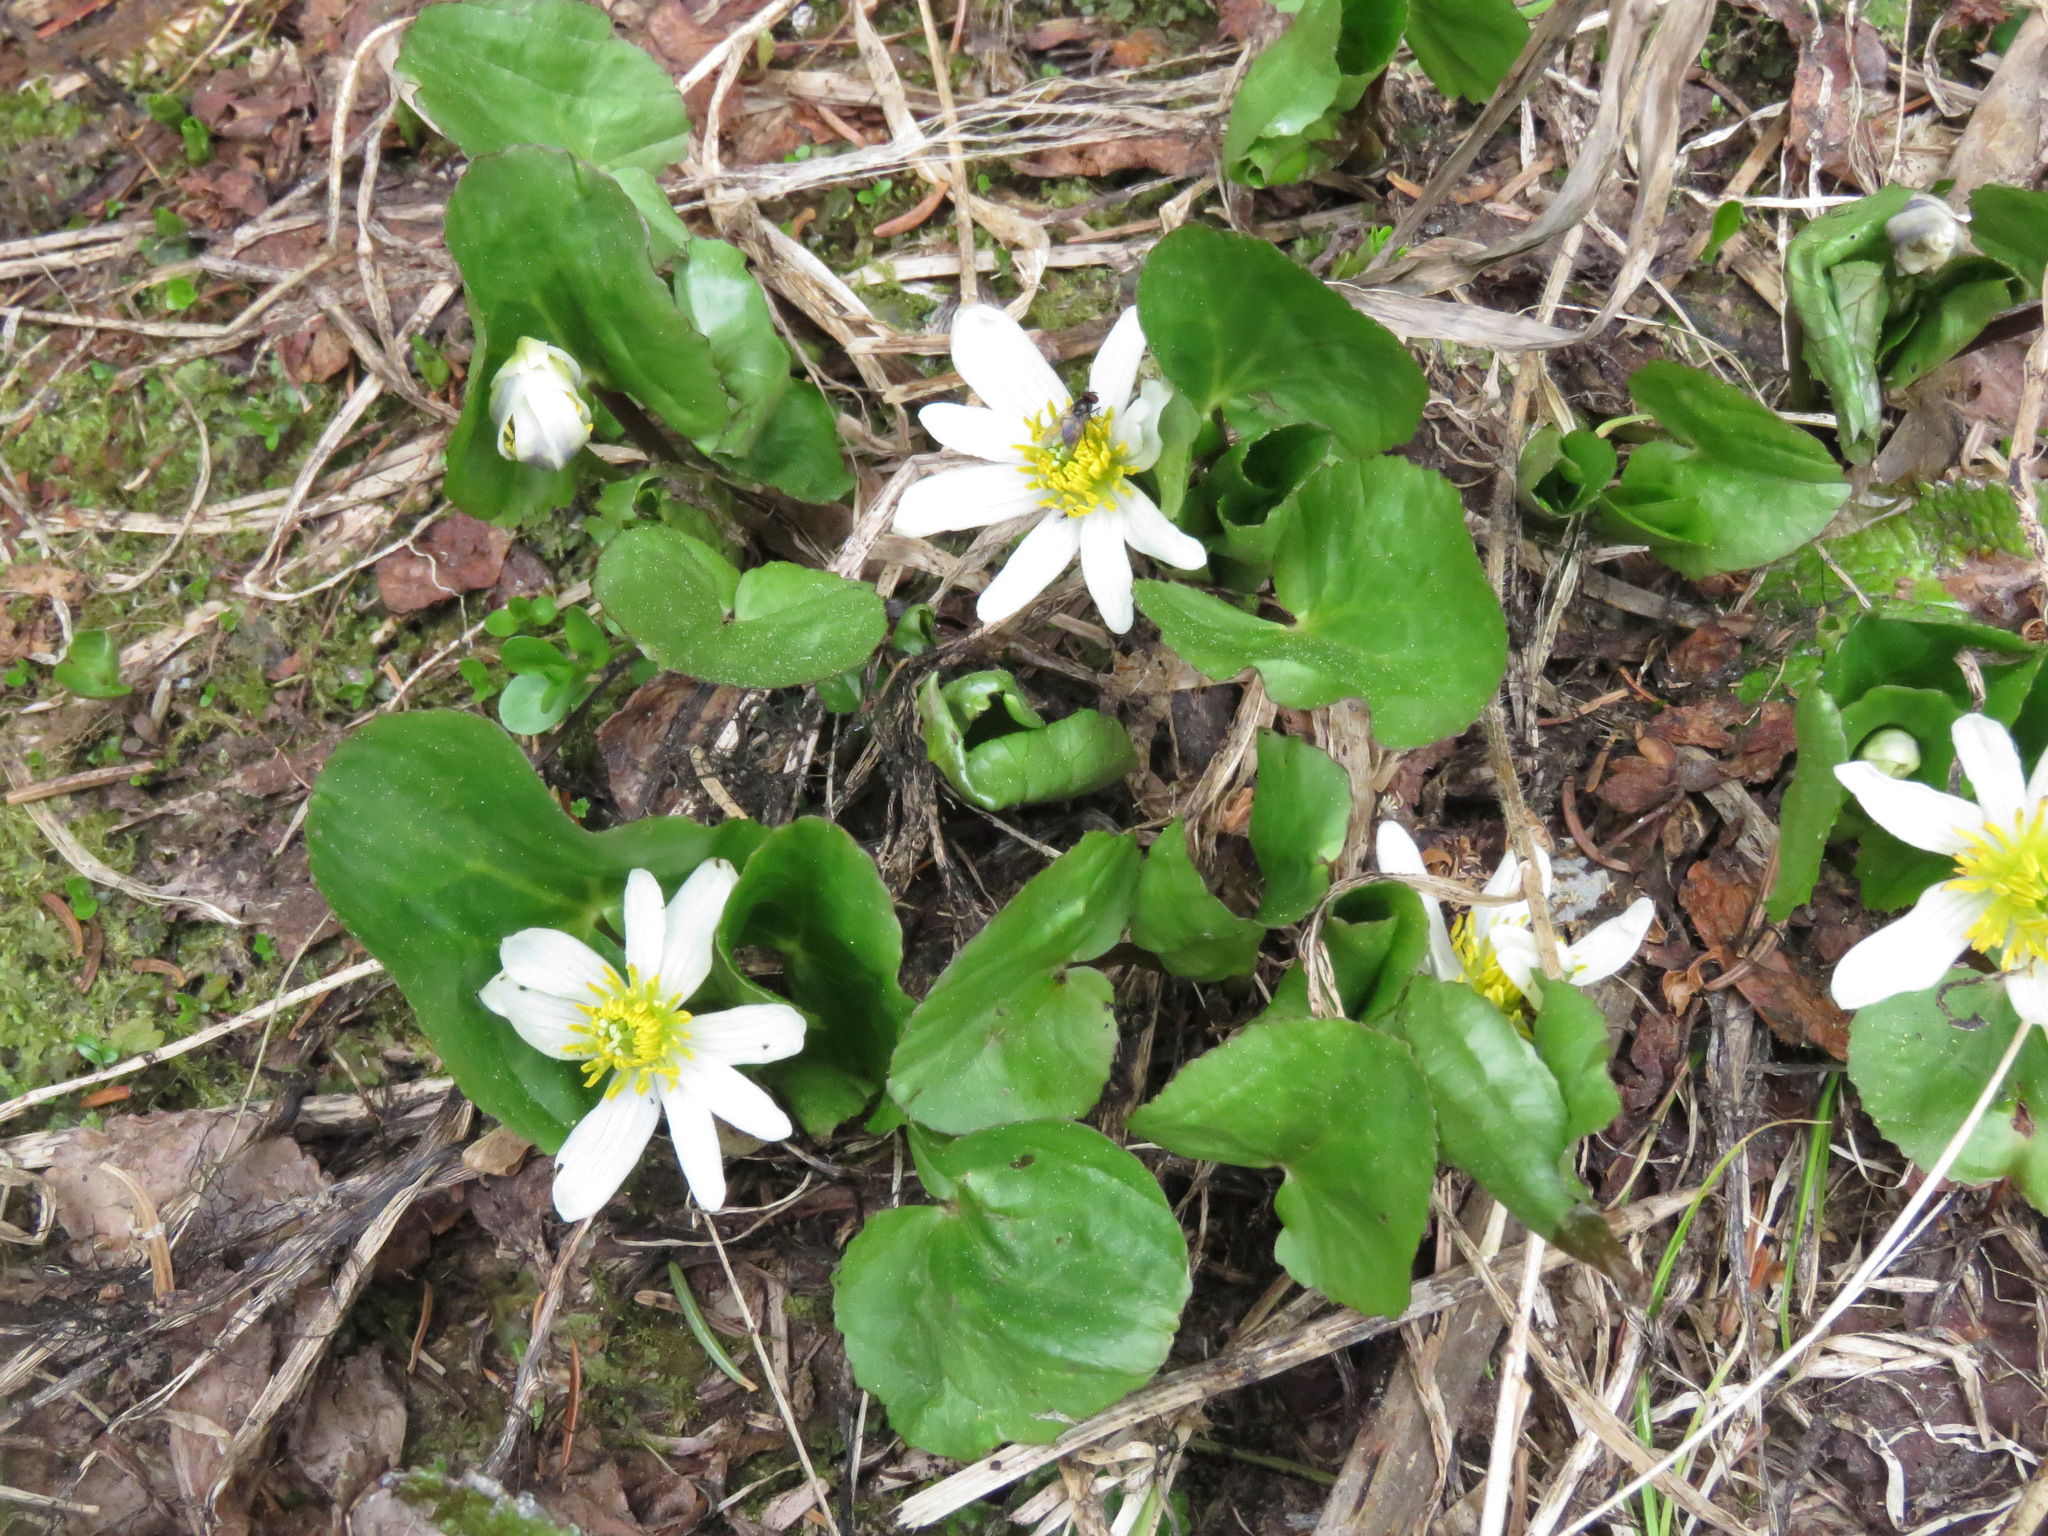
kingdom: Plantae
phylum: Tracheophyta
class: Magnoliopsida
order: Ranunculales
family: Ranunculaceae
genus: Caltha
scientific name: Caltha leptosepala
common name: Elkslip
